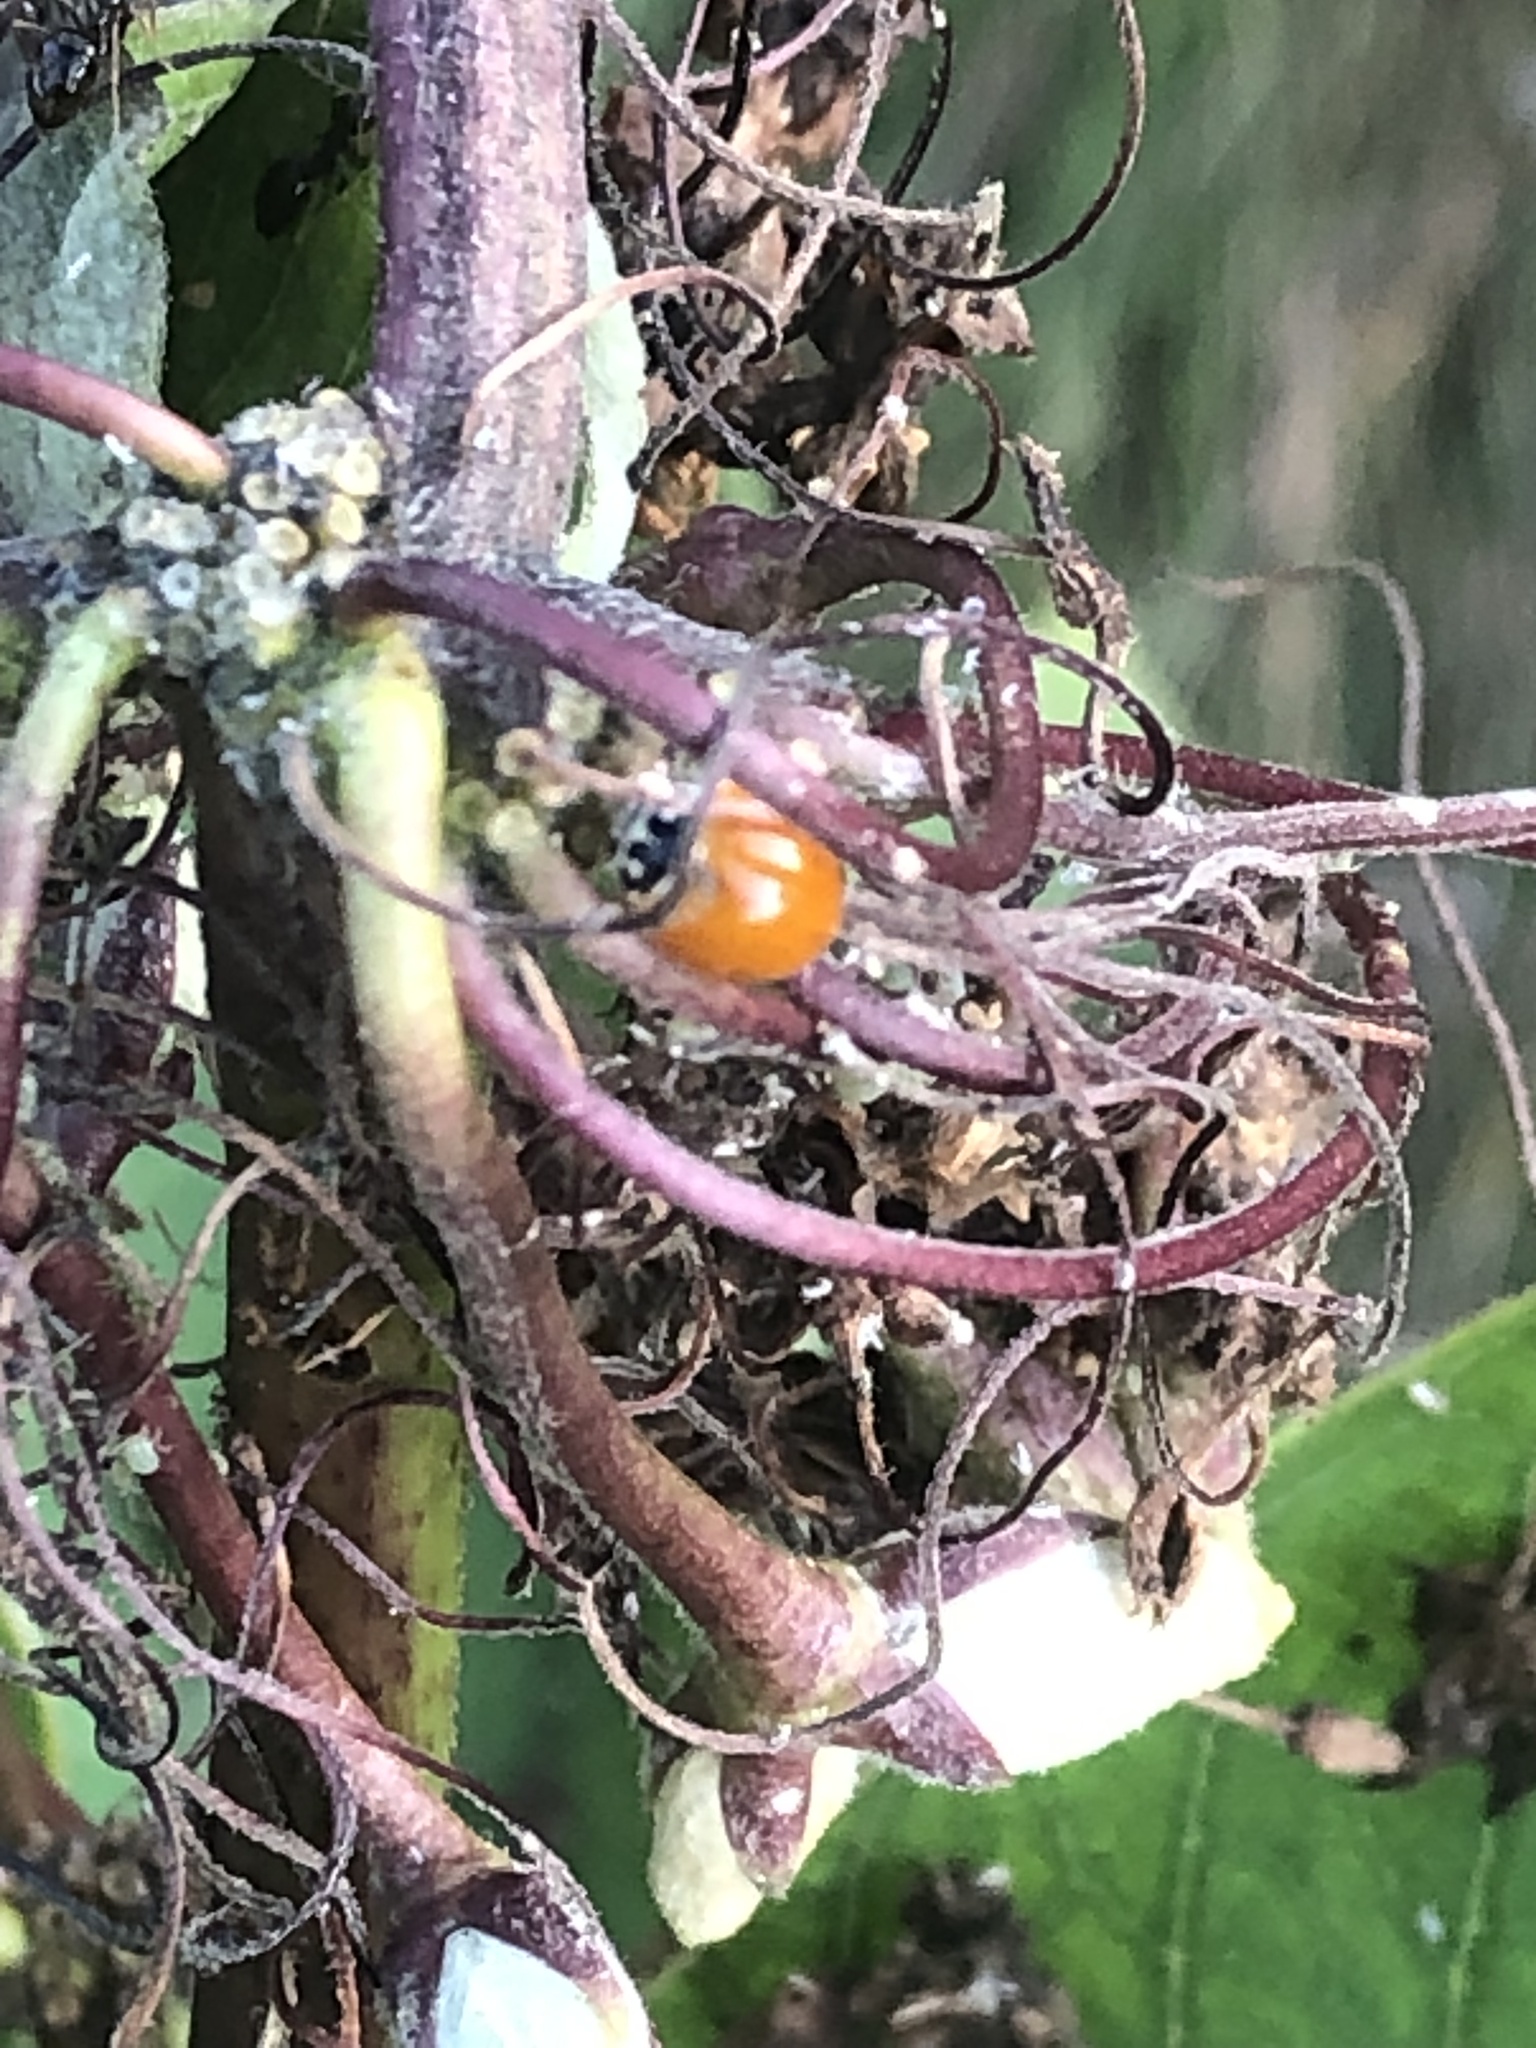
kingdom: Animalia
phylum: Arthropoda
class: Insecta
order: Coleoptera
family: Coccinellidae
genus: Cycloneda
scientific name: Cycloneda munda
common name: Polished lady beetle
